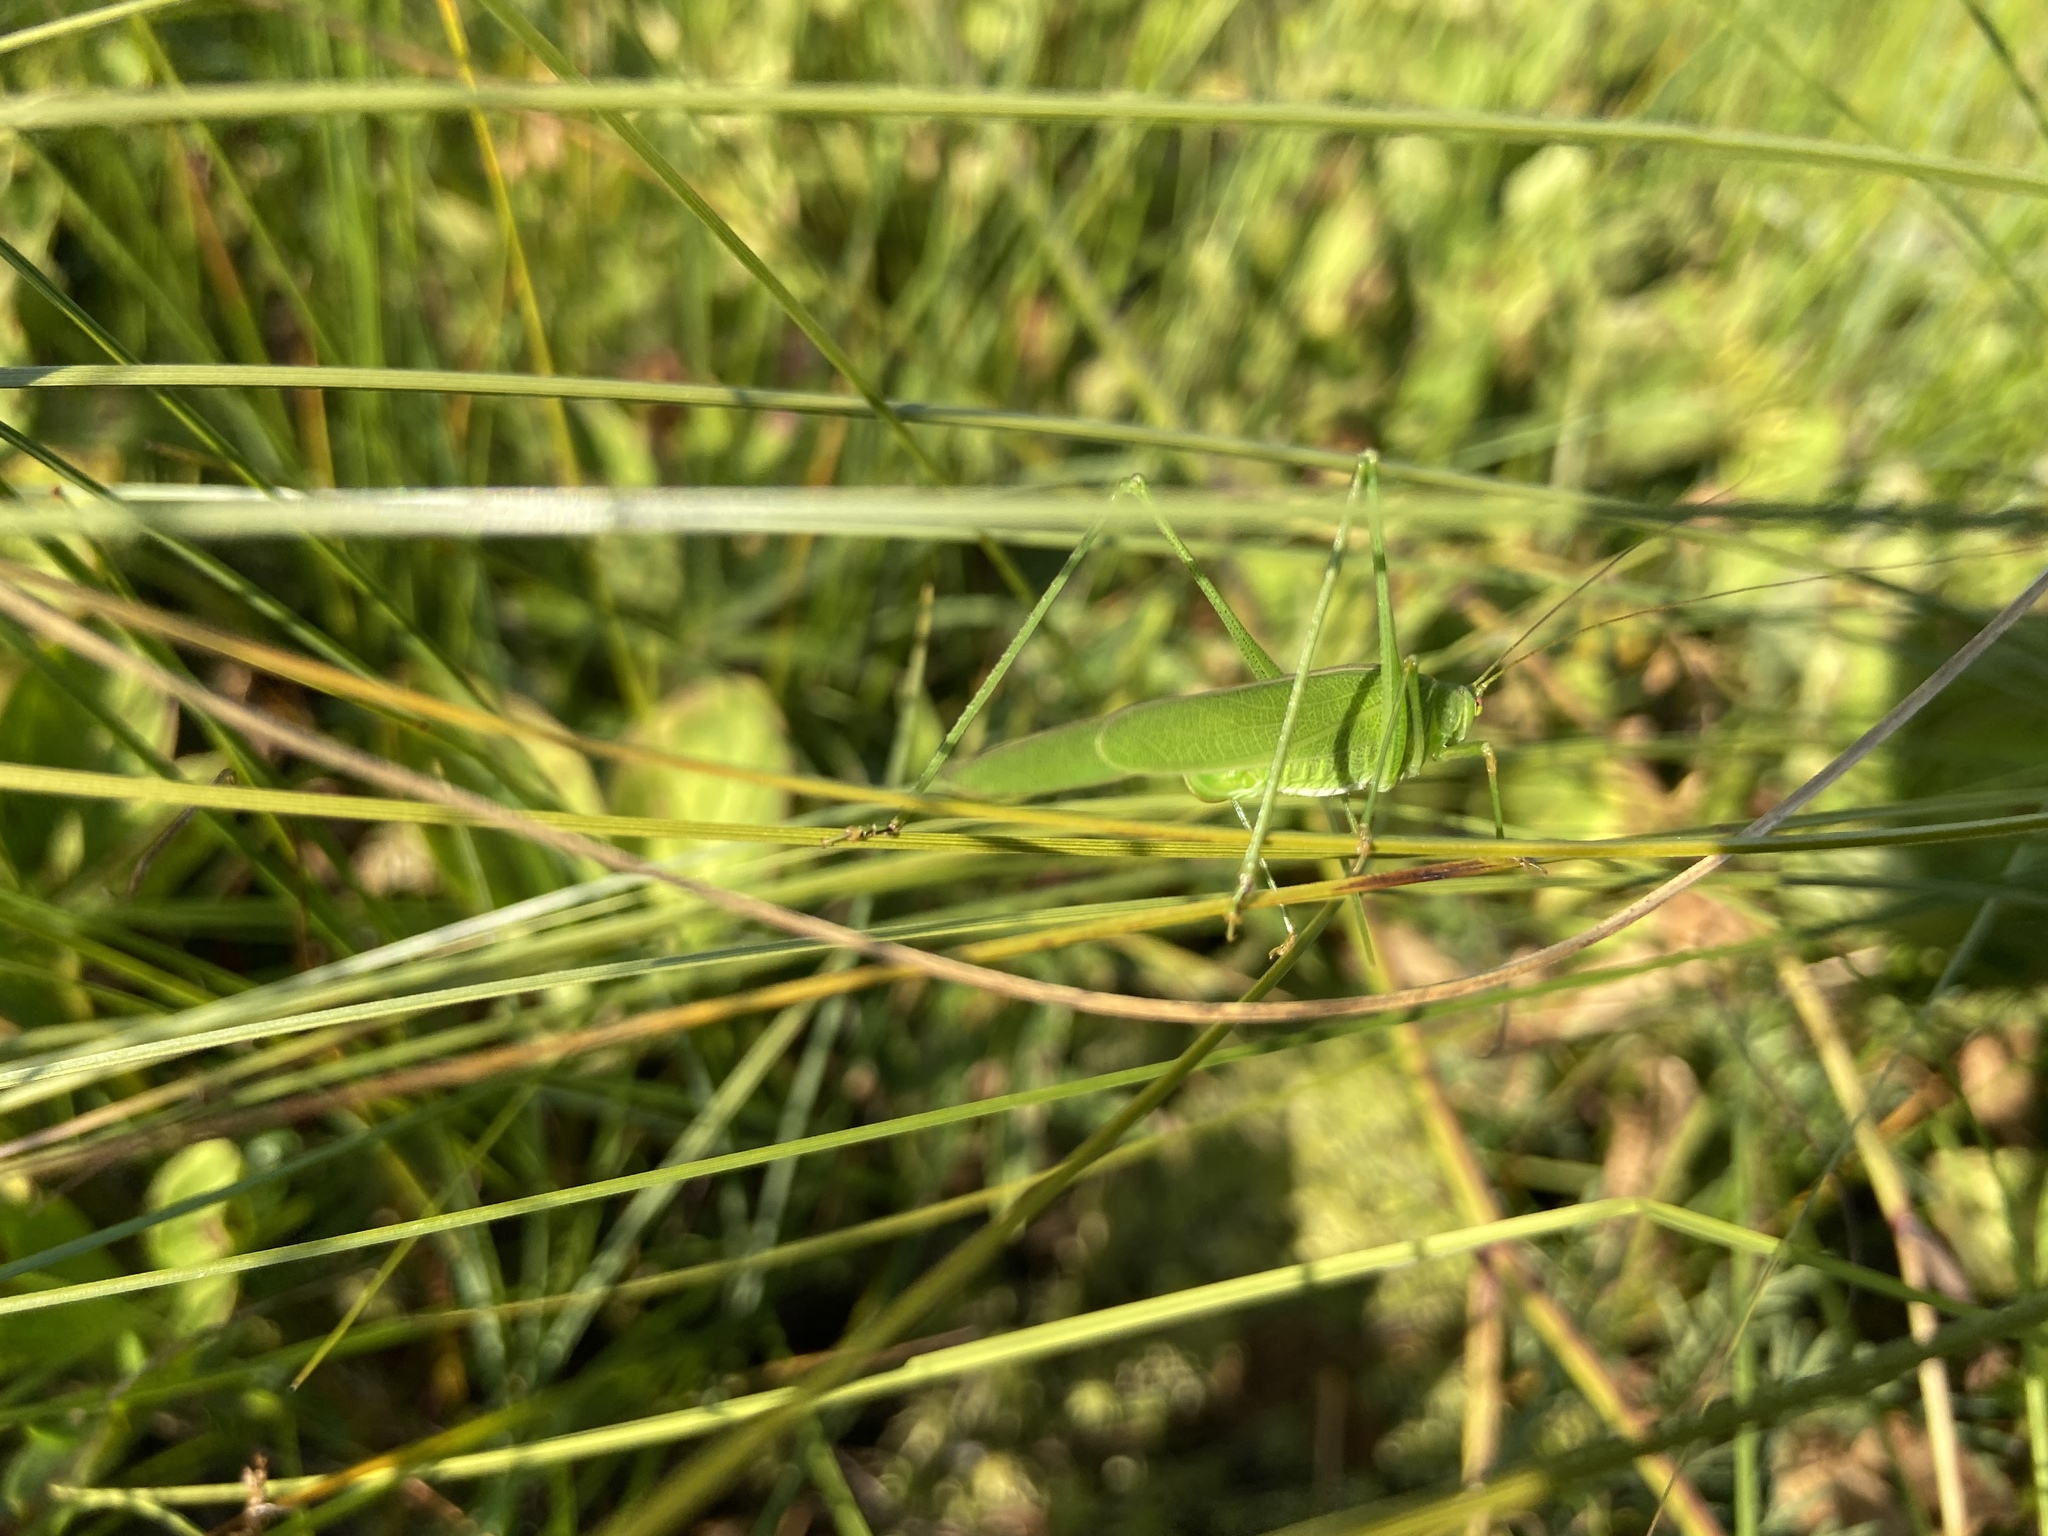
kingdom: Animalia
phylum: Arthropoda
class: Insecta
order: Orthoptera
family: Tettigoniidae
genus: Phaneroptera
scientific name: Phaneroptera falcata
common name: Sickle-bearing bush-cricket
